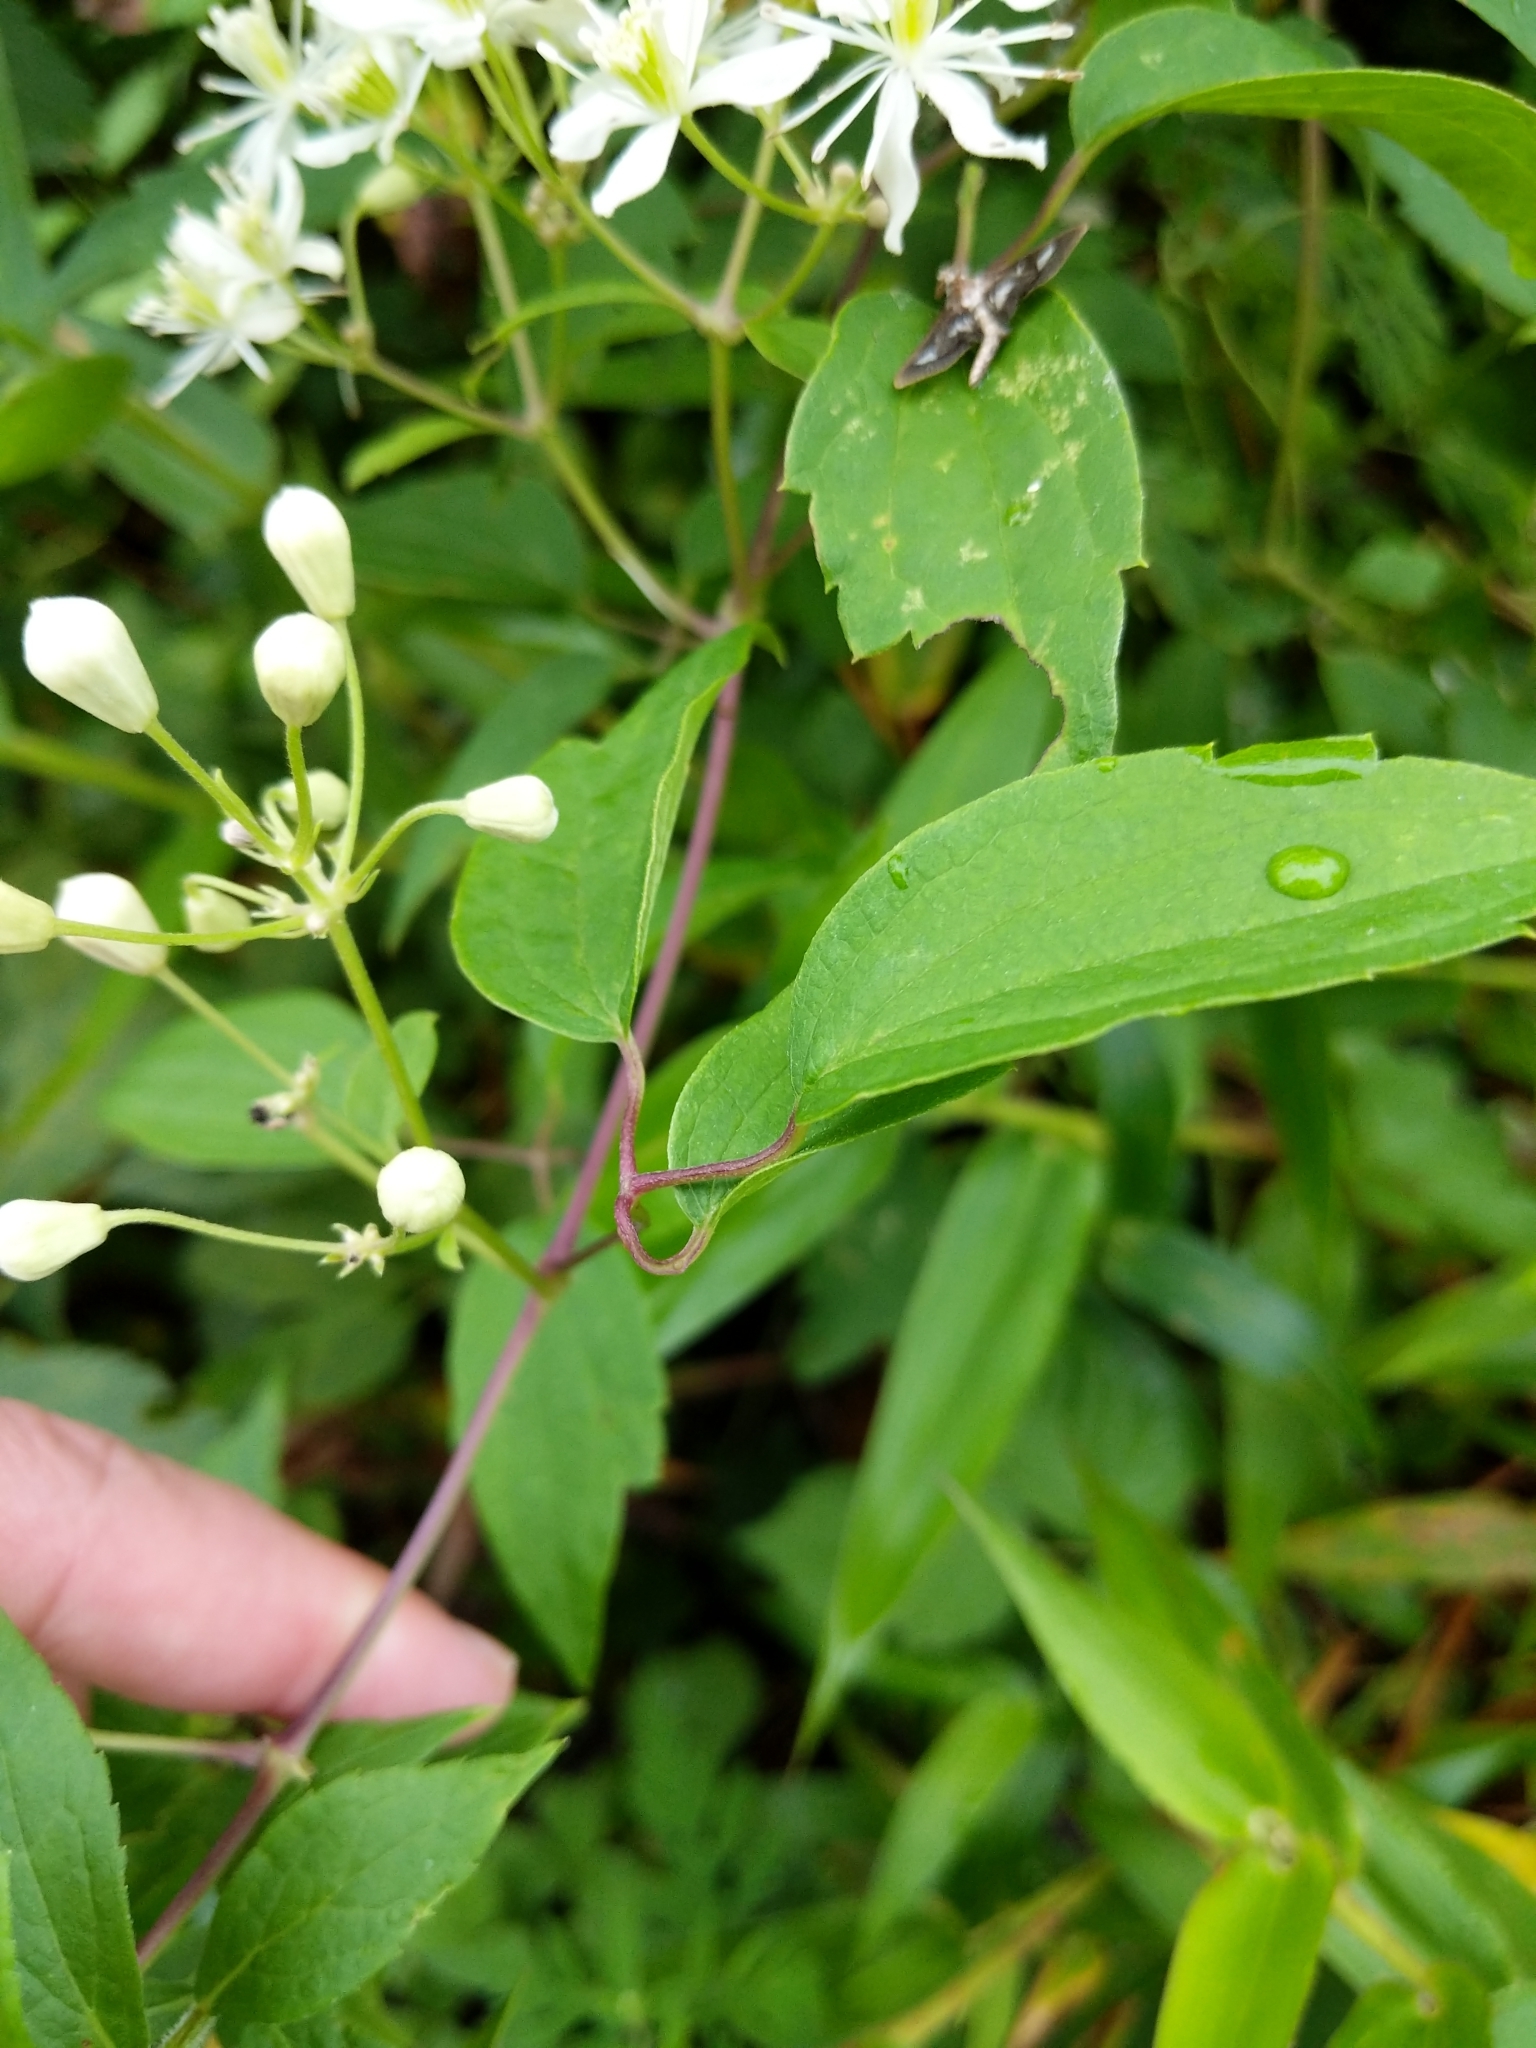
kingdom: Plantae
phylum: Tracheophyta
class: Magnoliopsida
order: Ranunculales
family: Ranunculaceae
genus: Clematis
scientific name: Clematis virginiana
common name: Virgin's-bower
